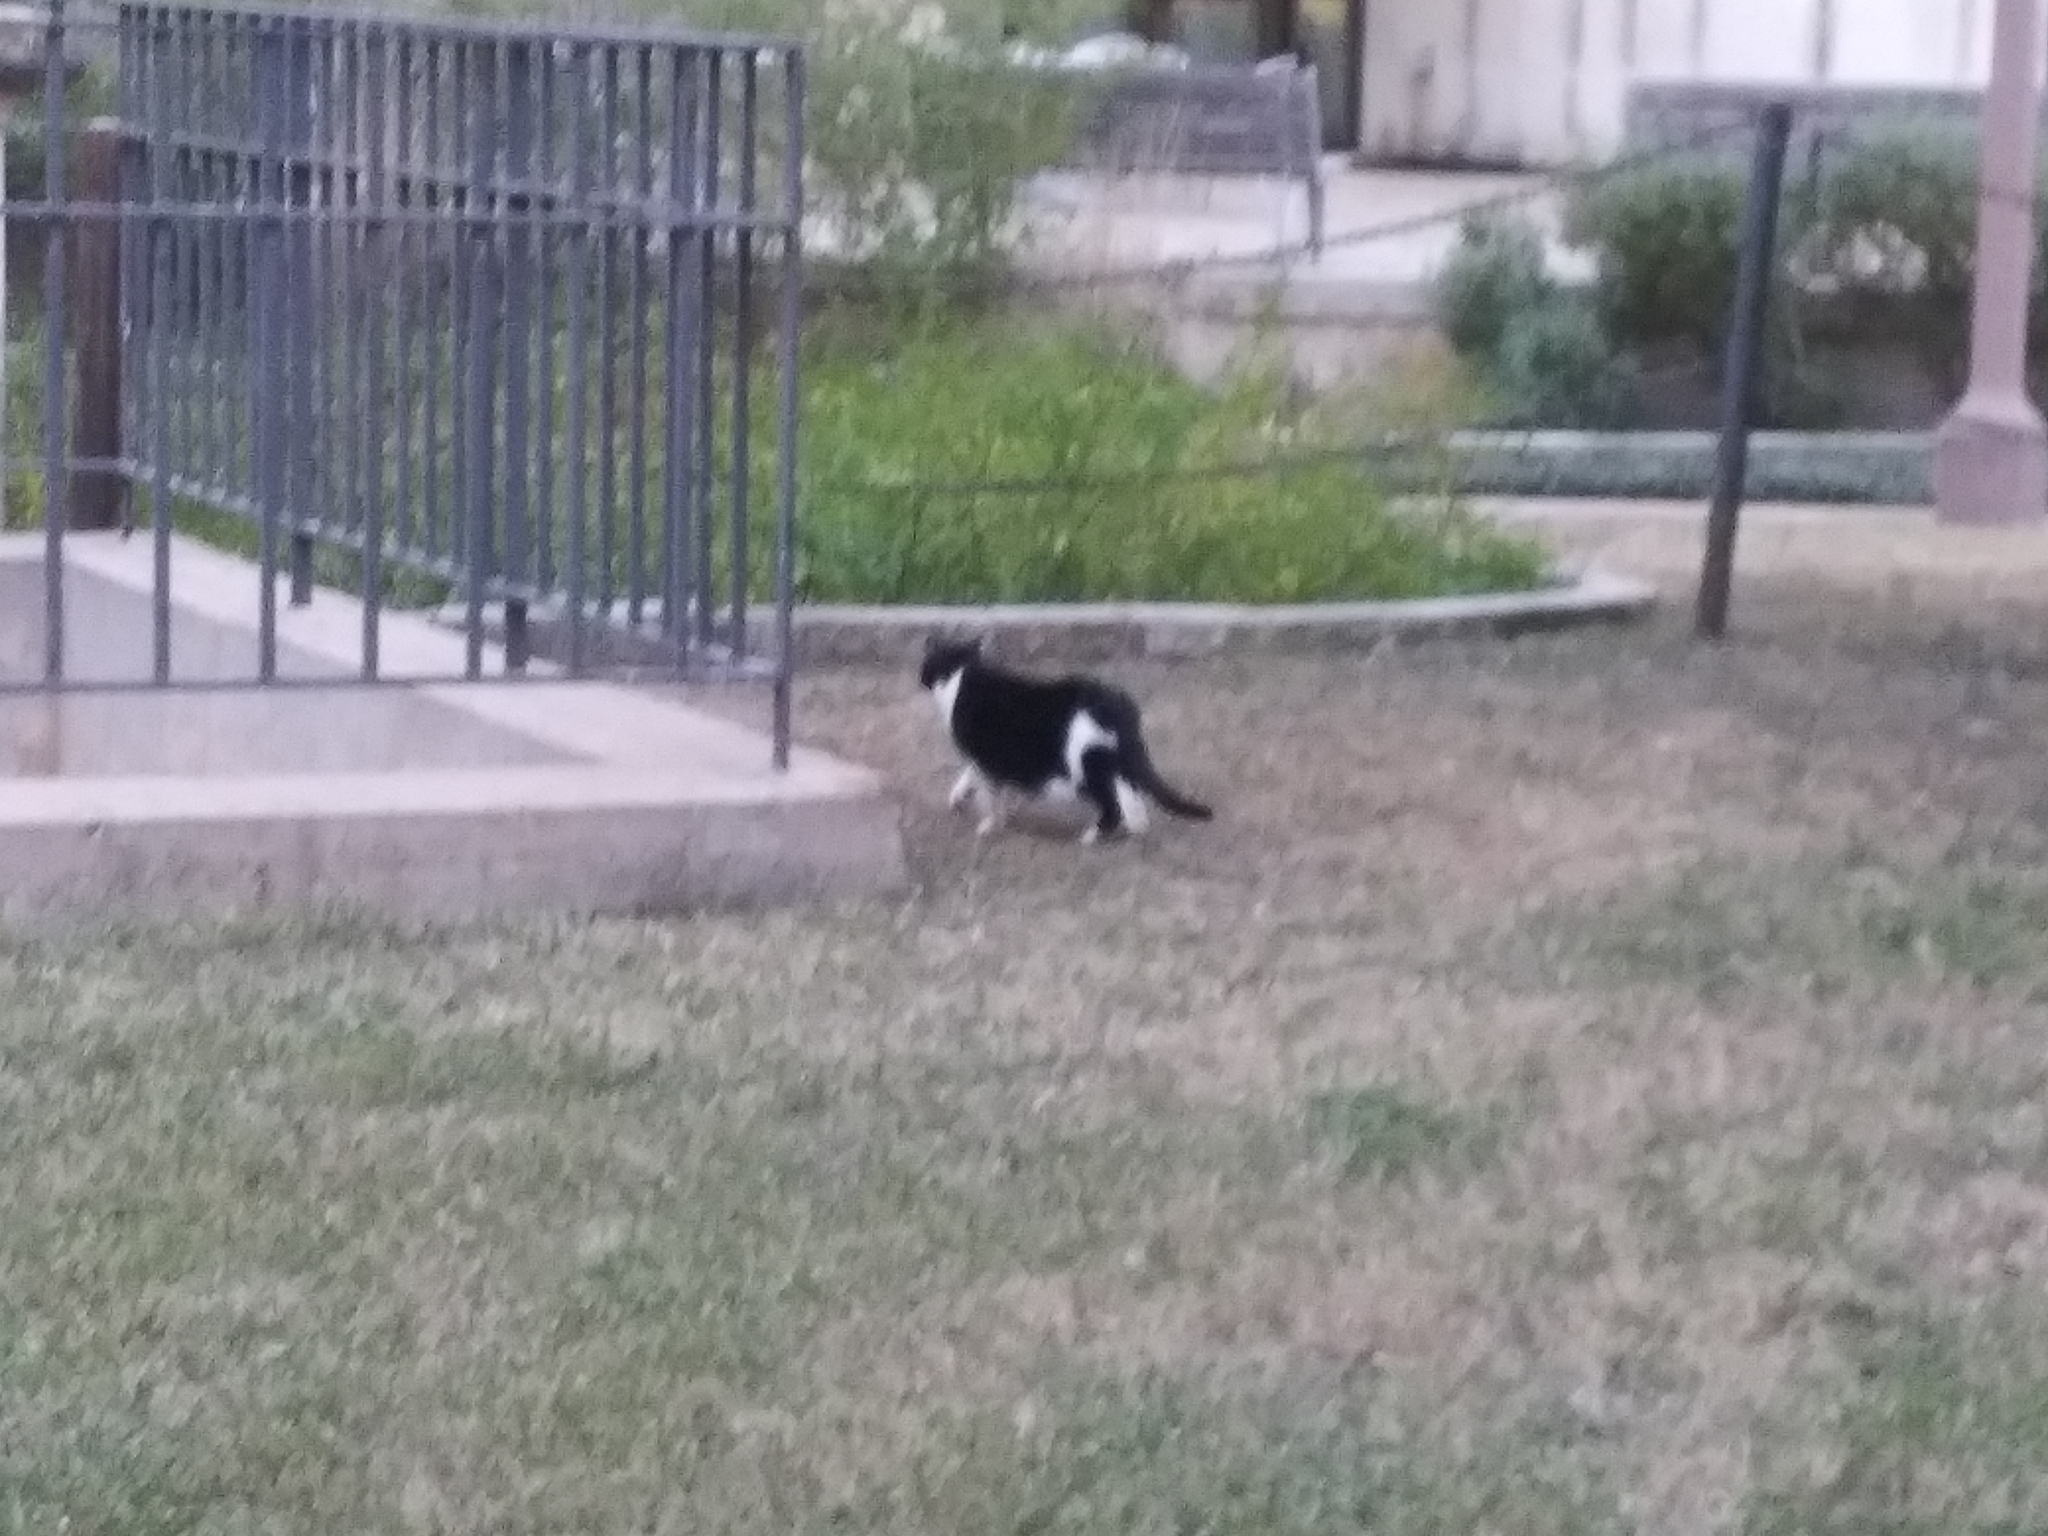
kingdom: Animalia
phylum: Chordata
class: Mammalia
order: Carnivora
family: Felidae
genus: Felis
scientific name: Felis catus
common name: Domestic cat
